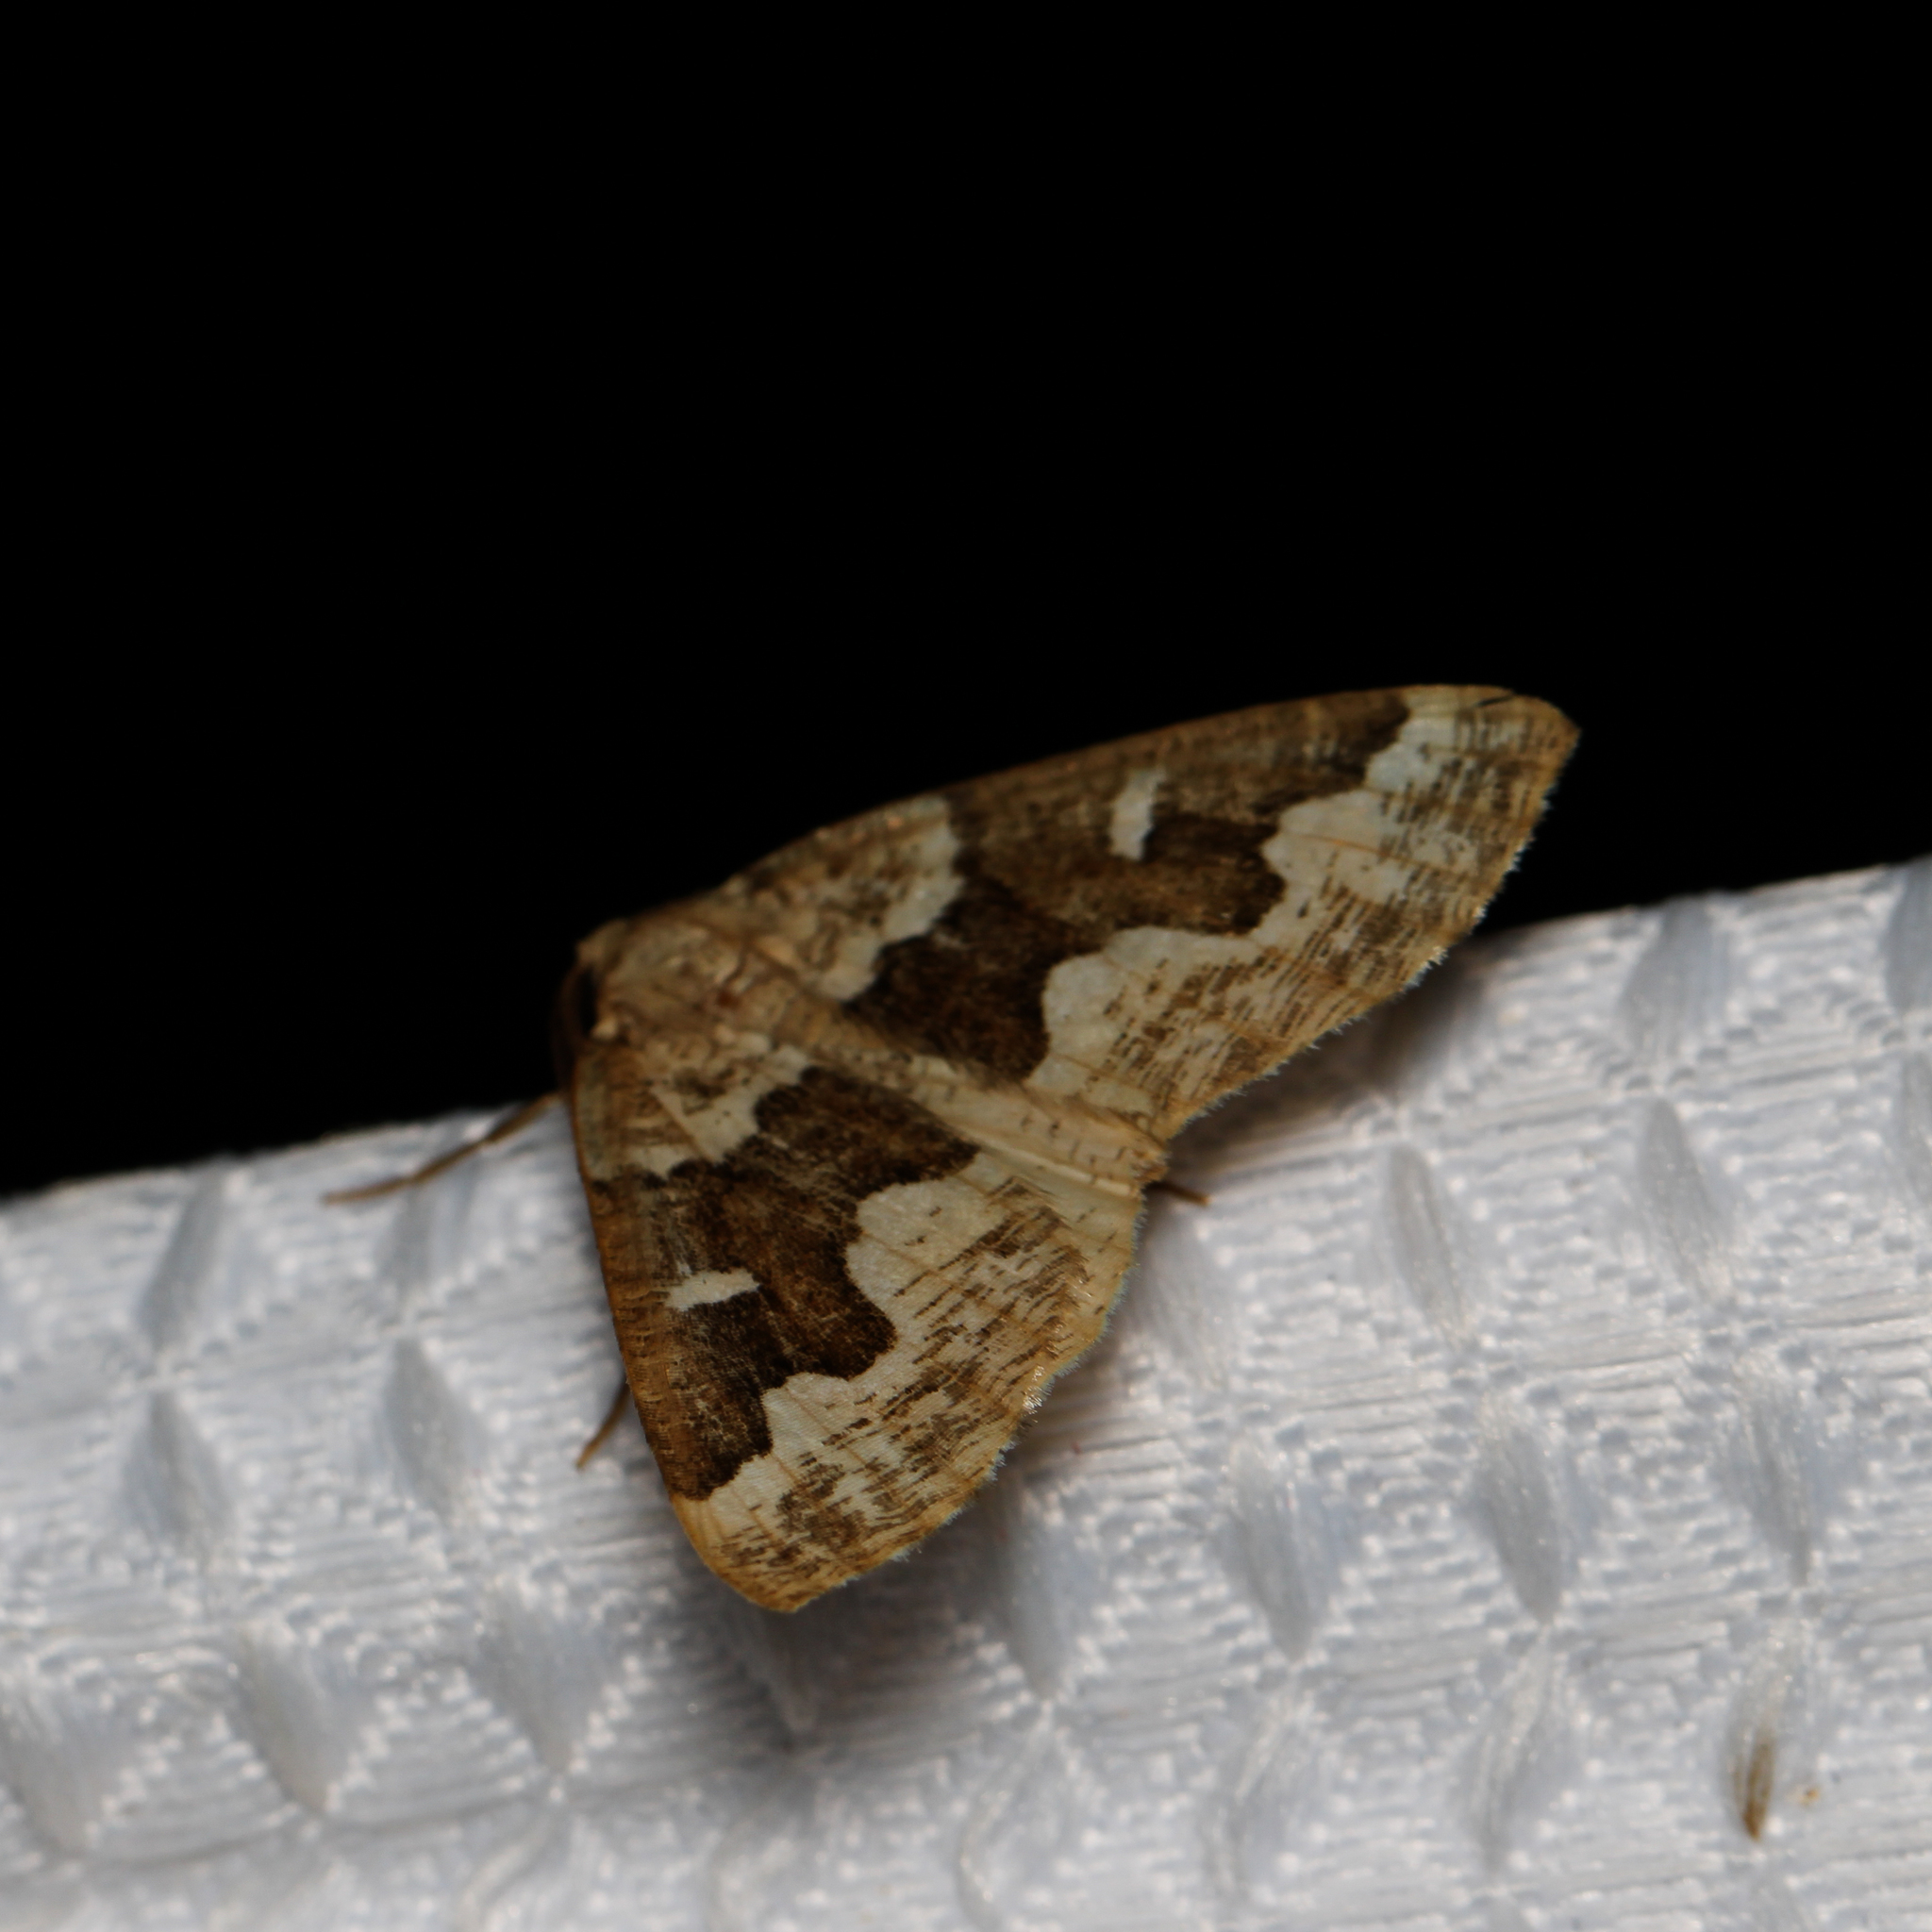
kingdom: Animalia
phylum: Arthropoda
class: Insecta
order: Lepidoptera
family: Geometridae
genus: Caripeta
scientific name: Caripeta divisata
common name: Gray spruce looper
